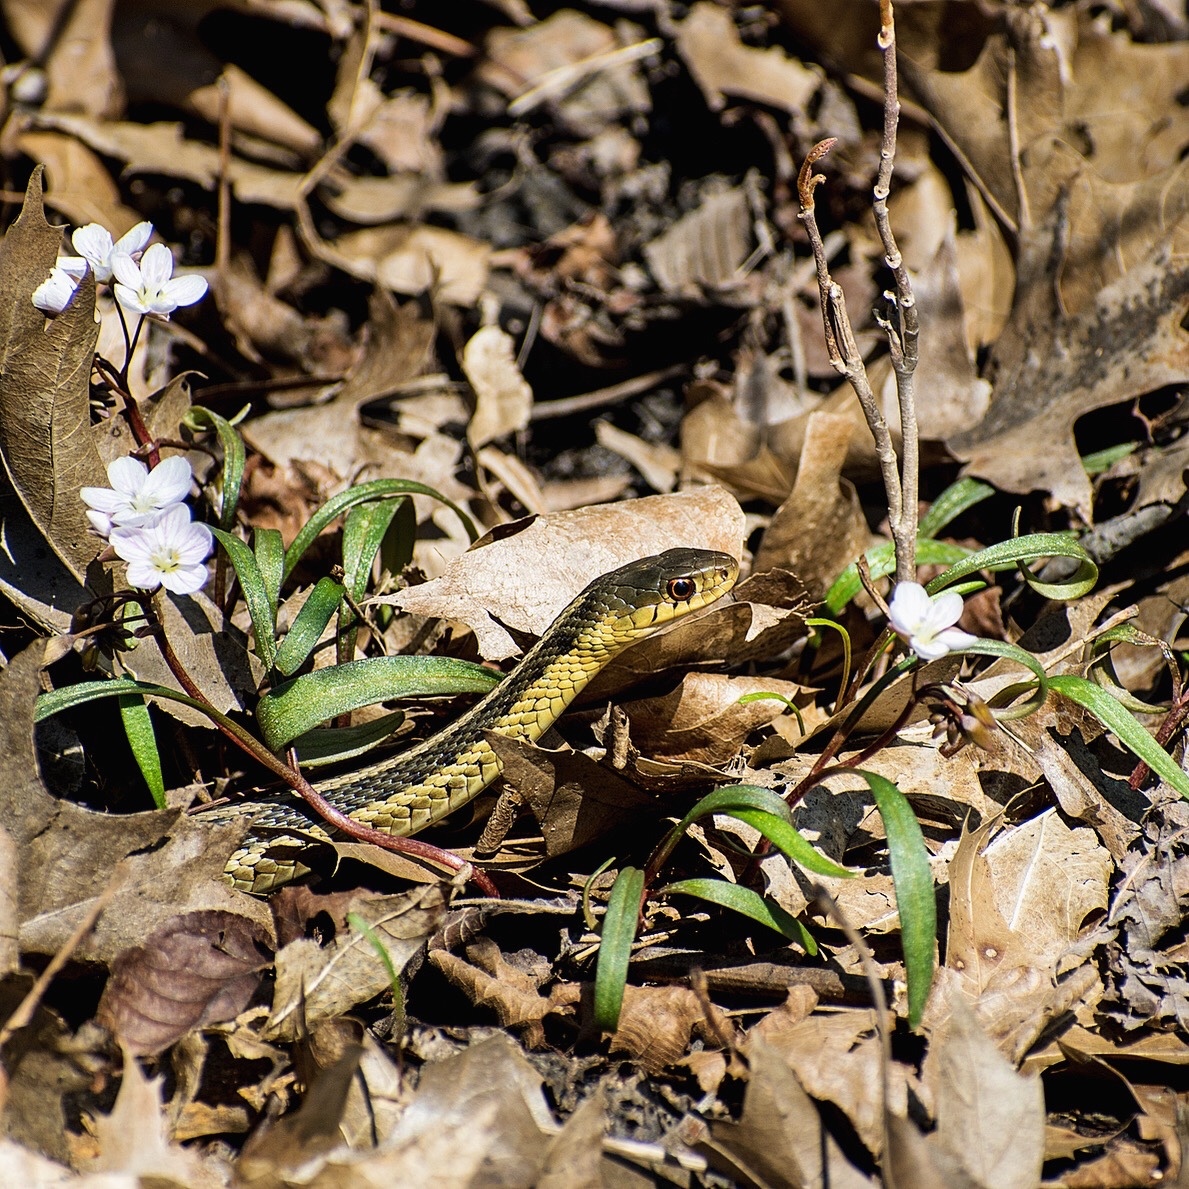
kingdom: Animalia
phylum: Chordata
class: Squamata
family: Colubridae
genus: Thamnophis
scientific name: Thamnophis sirtalis
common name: Common garter snake
